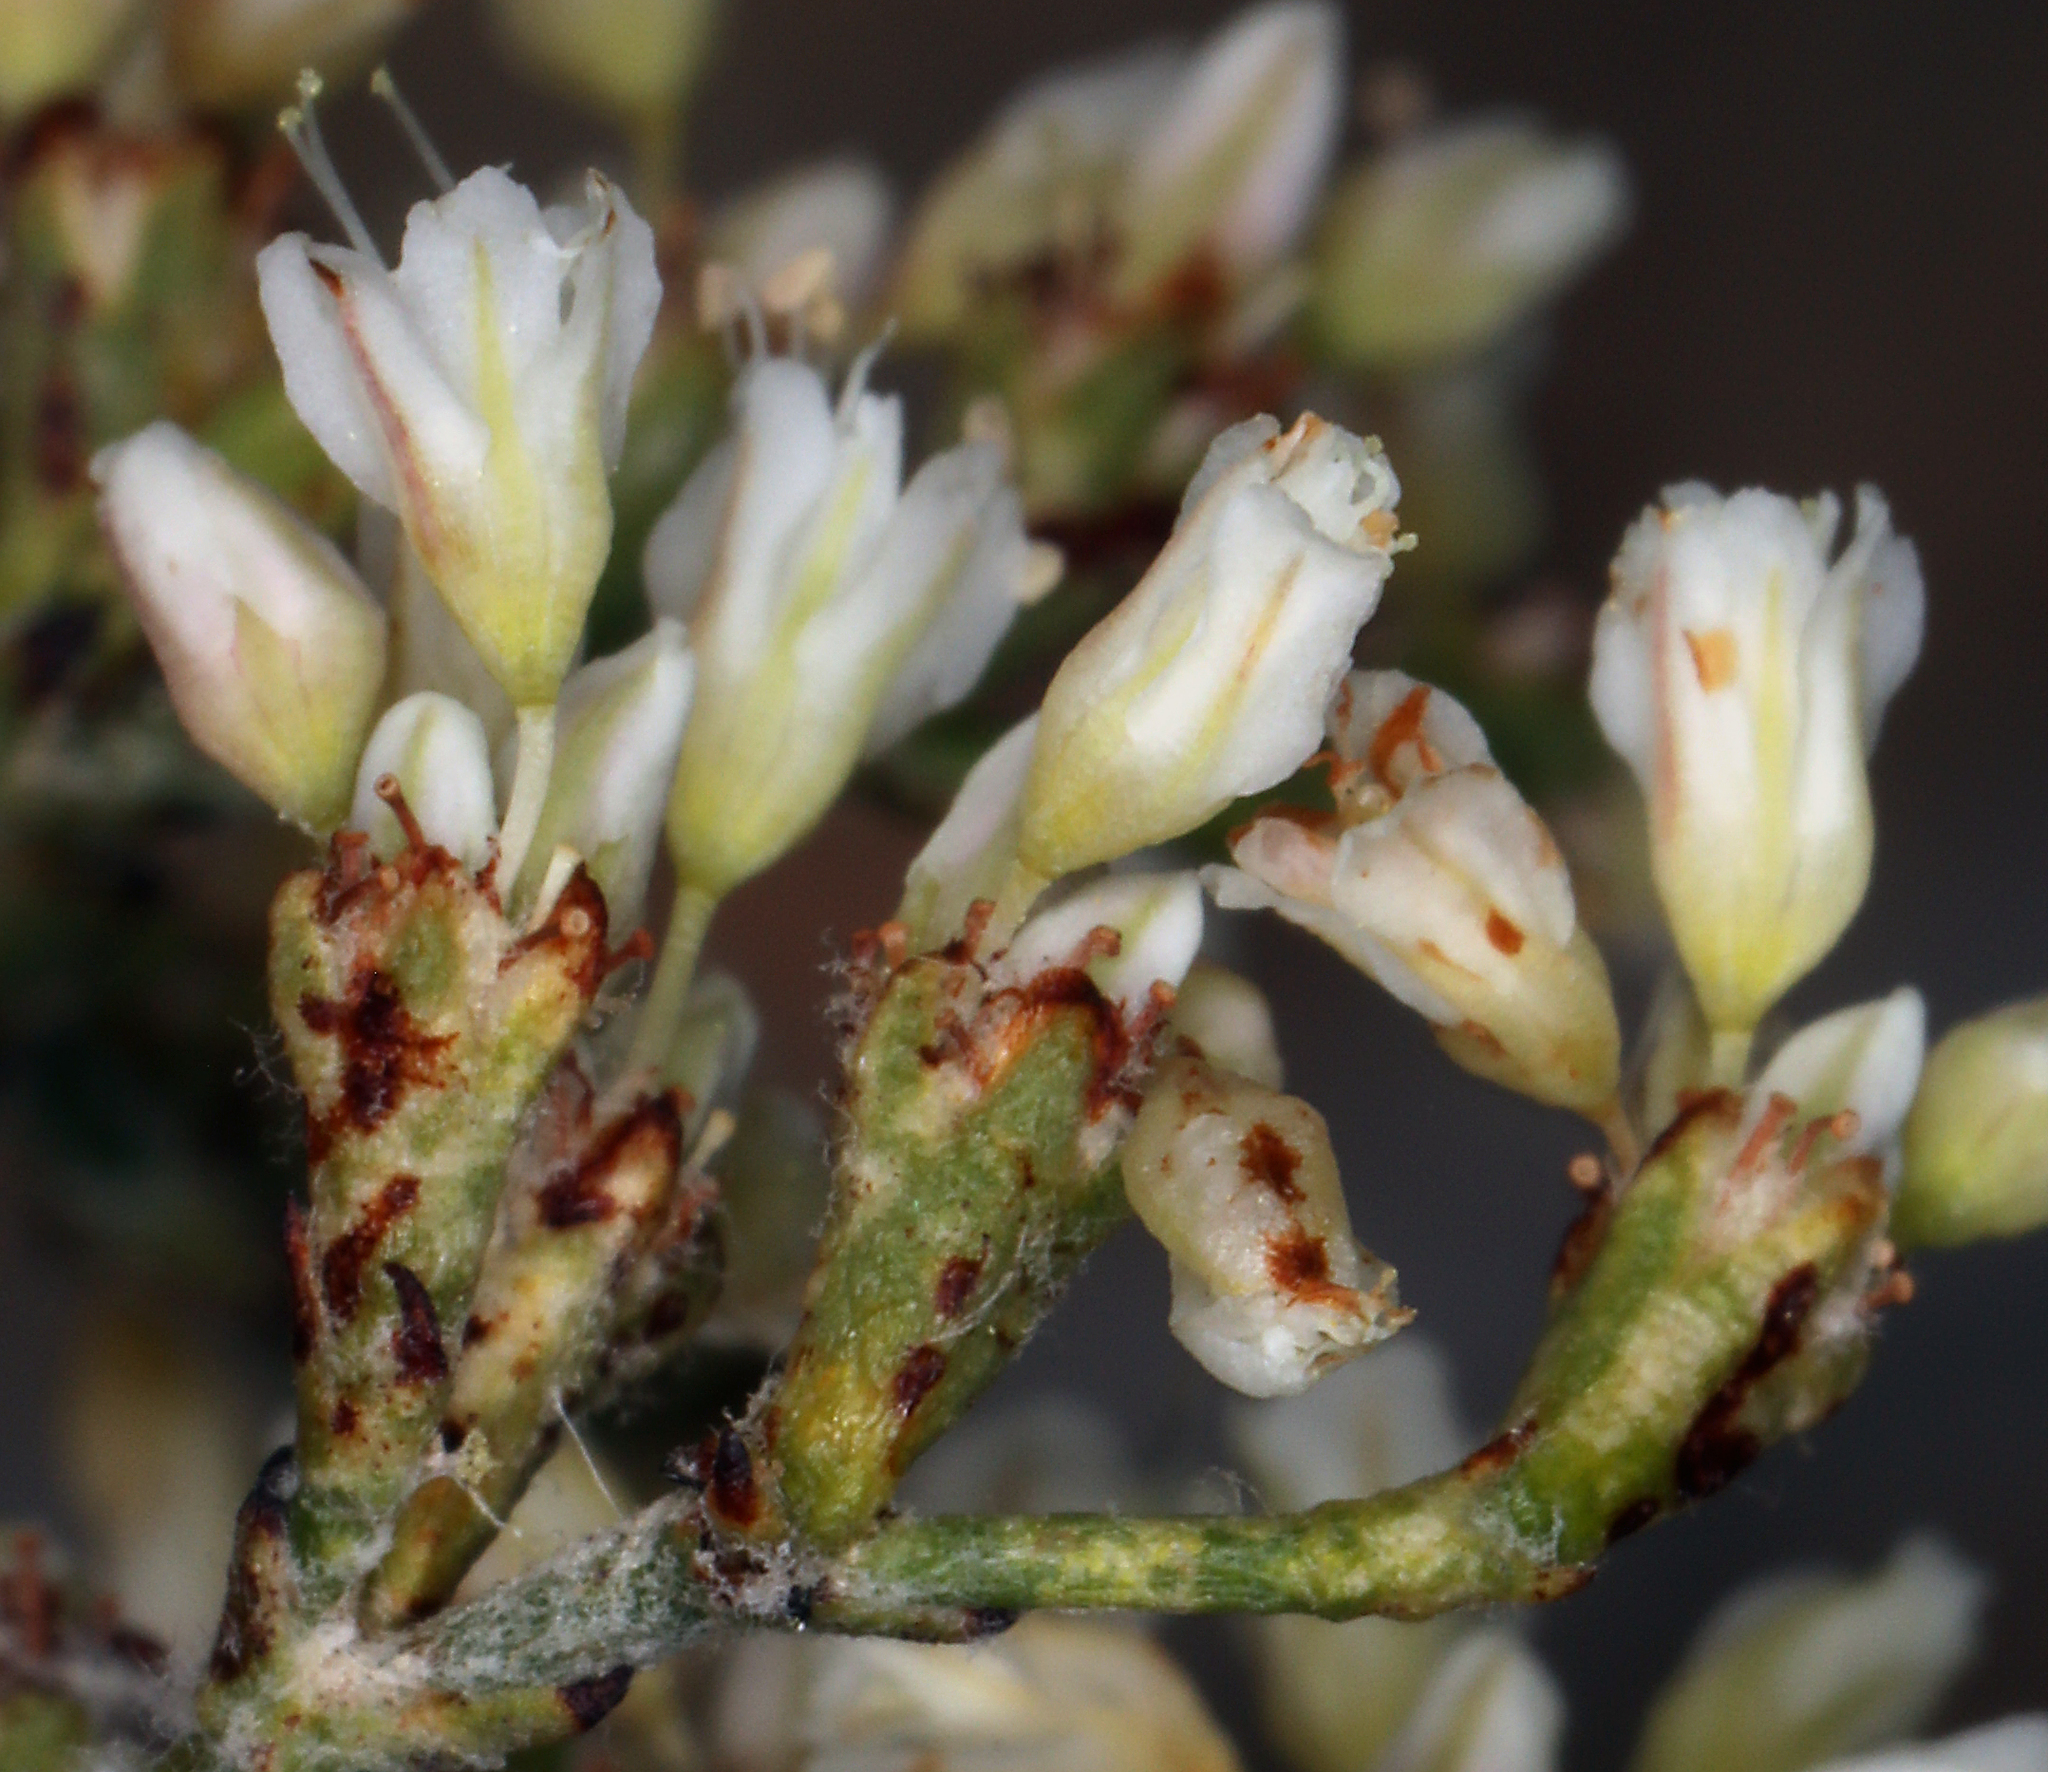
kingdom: Plantae
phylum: Tracheophyta
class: Magnoliopsida
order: Caryophyllales
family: Polygonaceae
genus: Eriogonum
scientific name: Eriogonum microtheca
